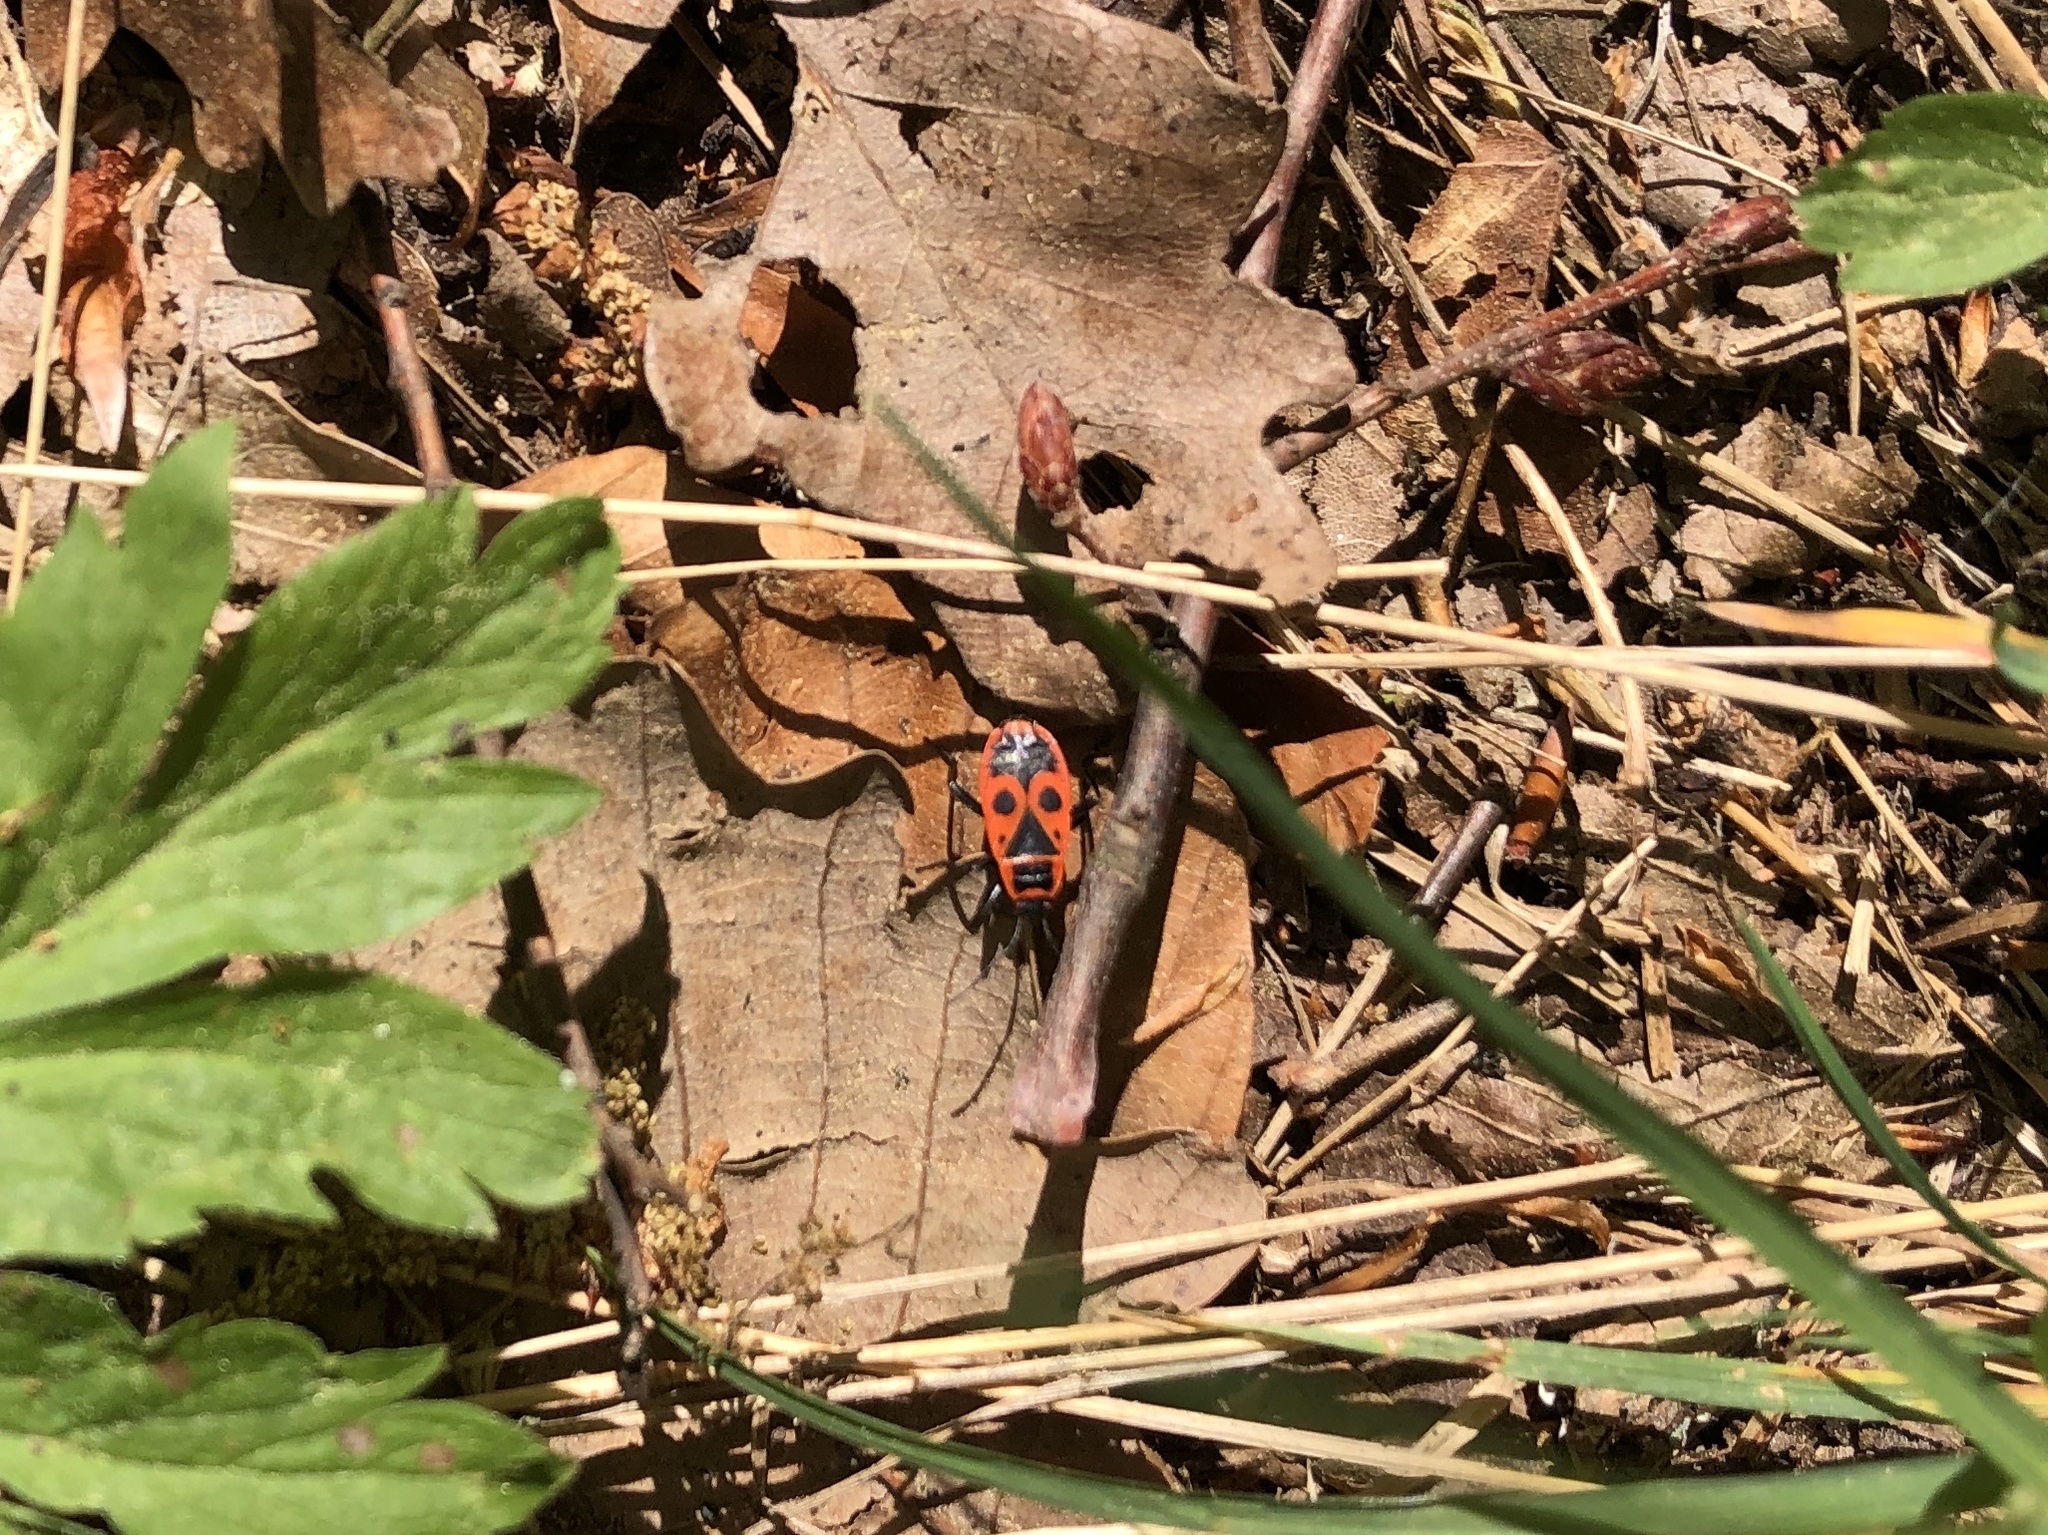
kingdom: Animalia
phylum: Arthropoda
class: Insecta
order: Hemiptera
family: Pyrrhocoridae
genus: Pyrrhocoris
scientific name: Pyrrhocoris apterus
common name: Firebug
